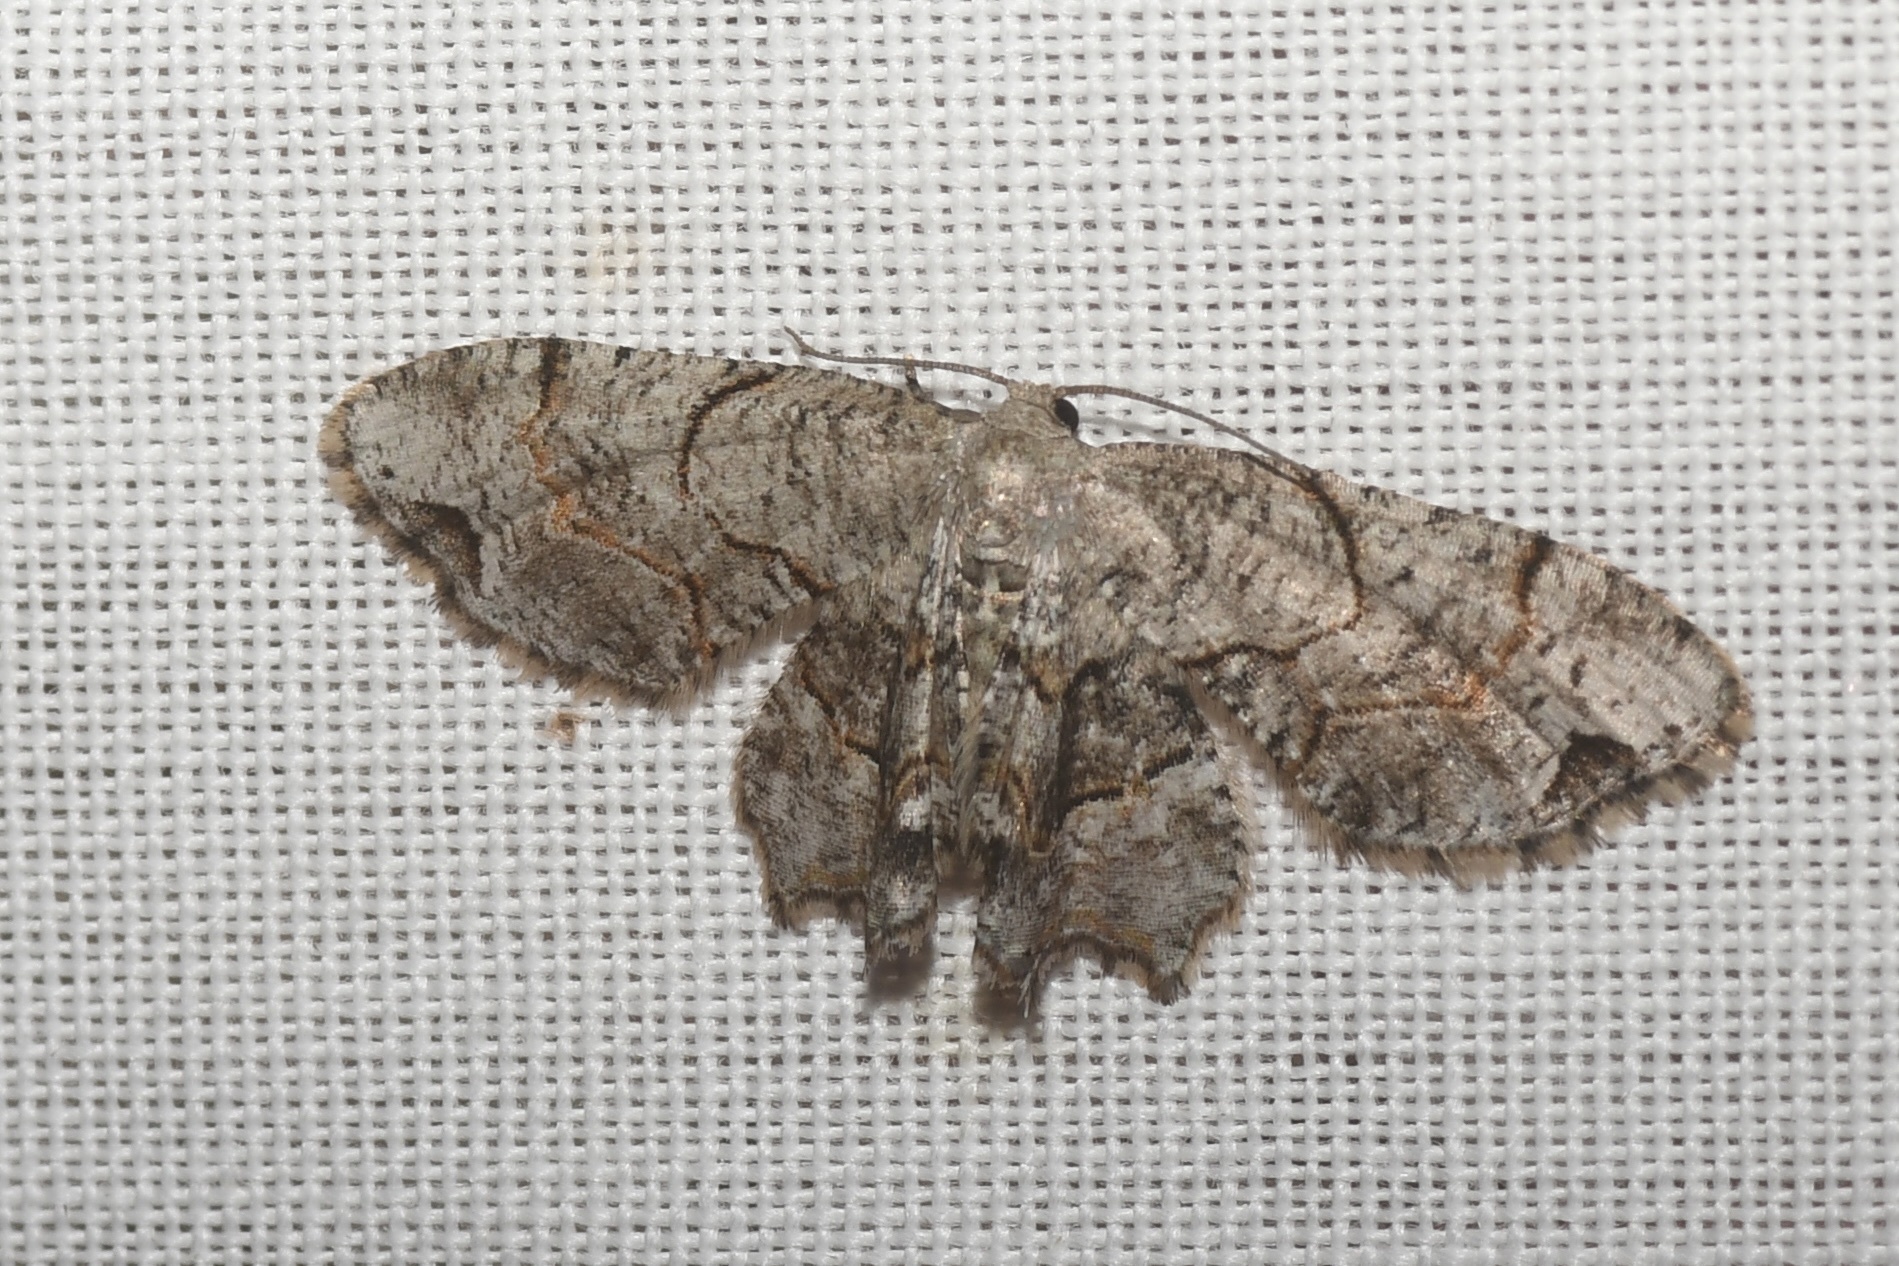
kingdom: Animalia
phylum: Arthropoda
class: Insecta
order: Lepidoptera
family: Uraniidae
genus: Epiplema
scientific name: Epiplema Callizzia amorata
